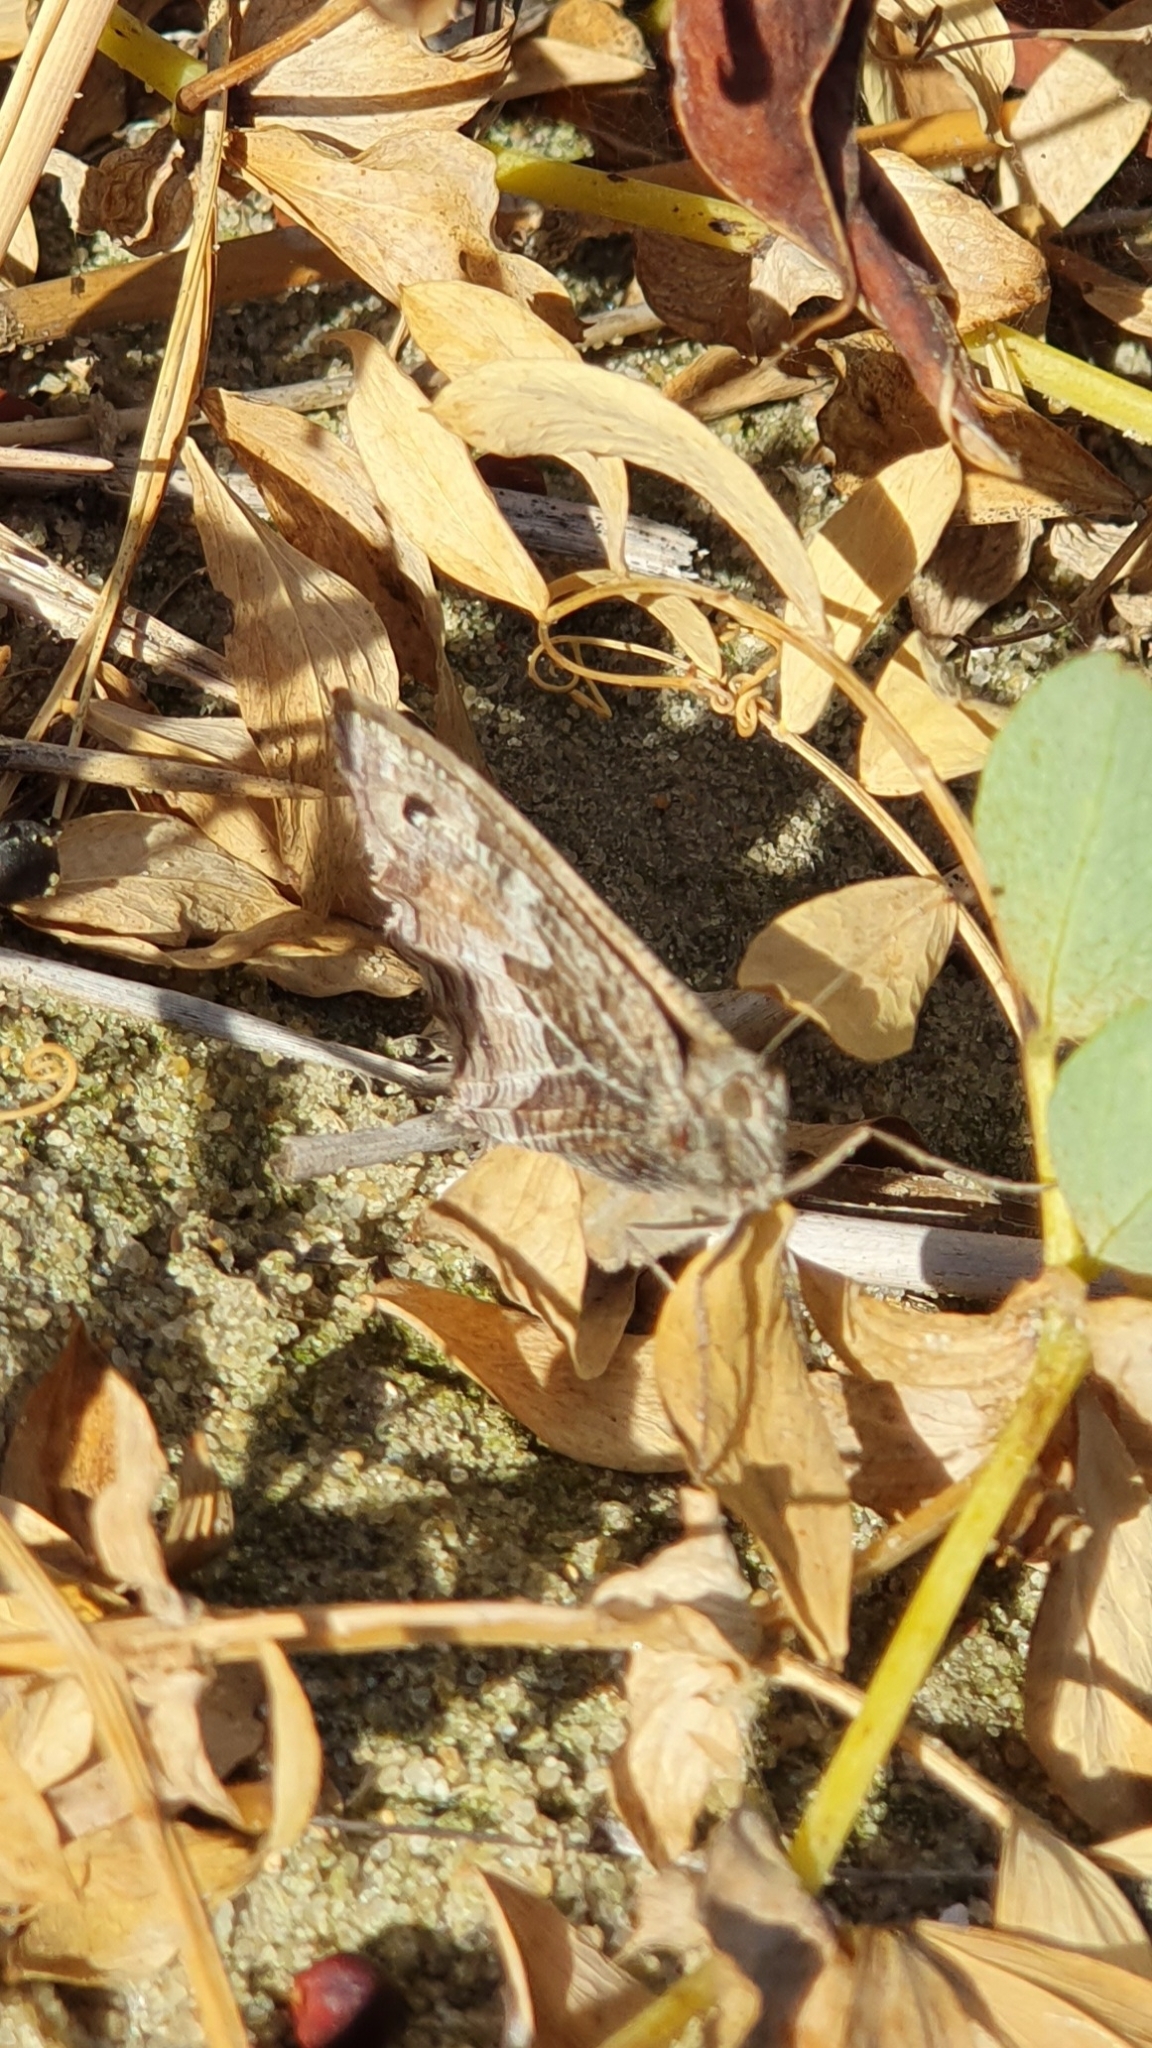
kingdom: Animalia
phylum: Arthropoda
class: Insecta
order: Lepidoptera
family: Nymphalidae
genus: Hipparchia
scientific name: Hipparchia semele
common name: Grayling
